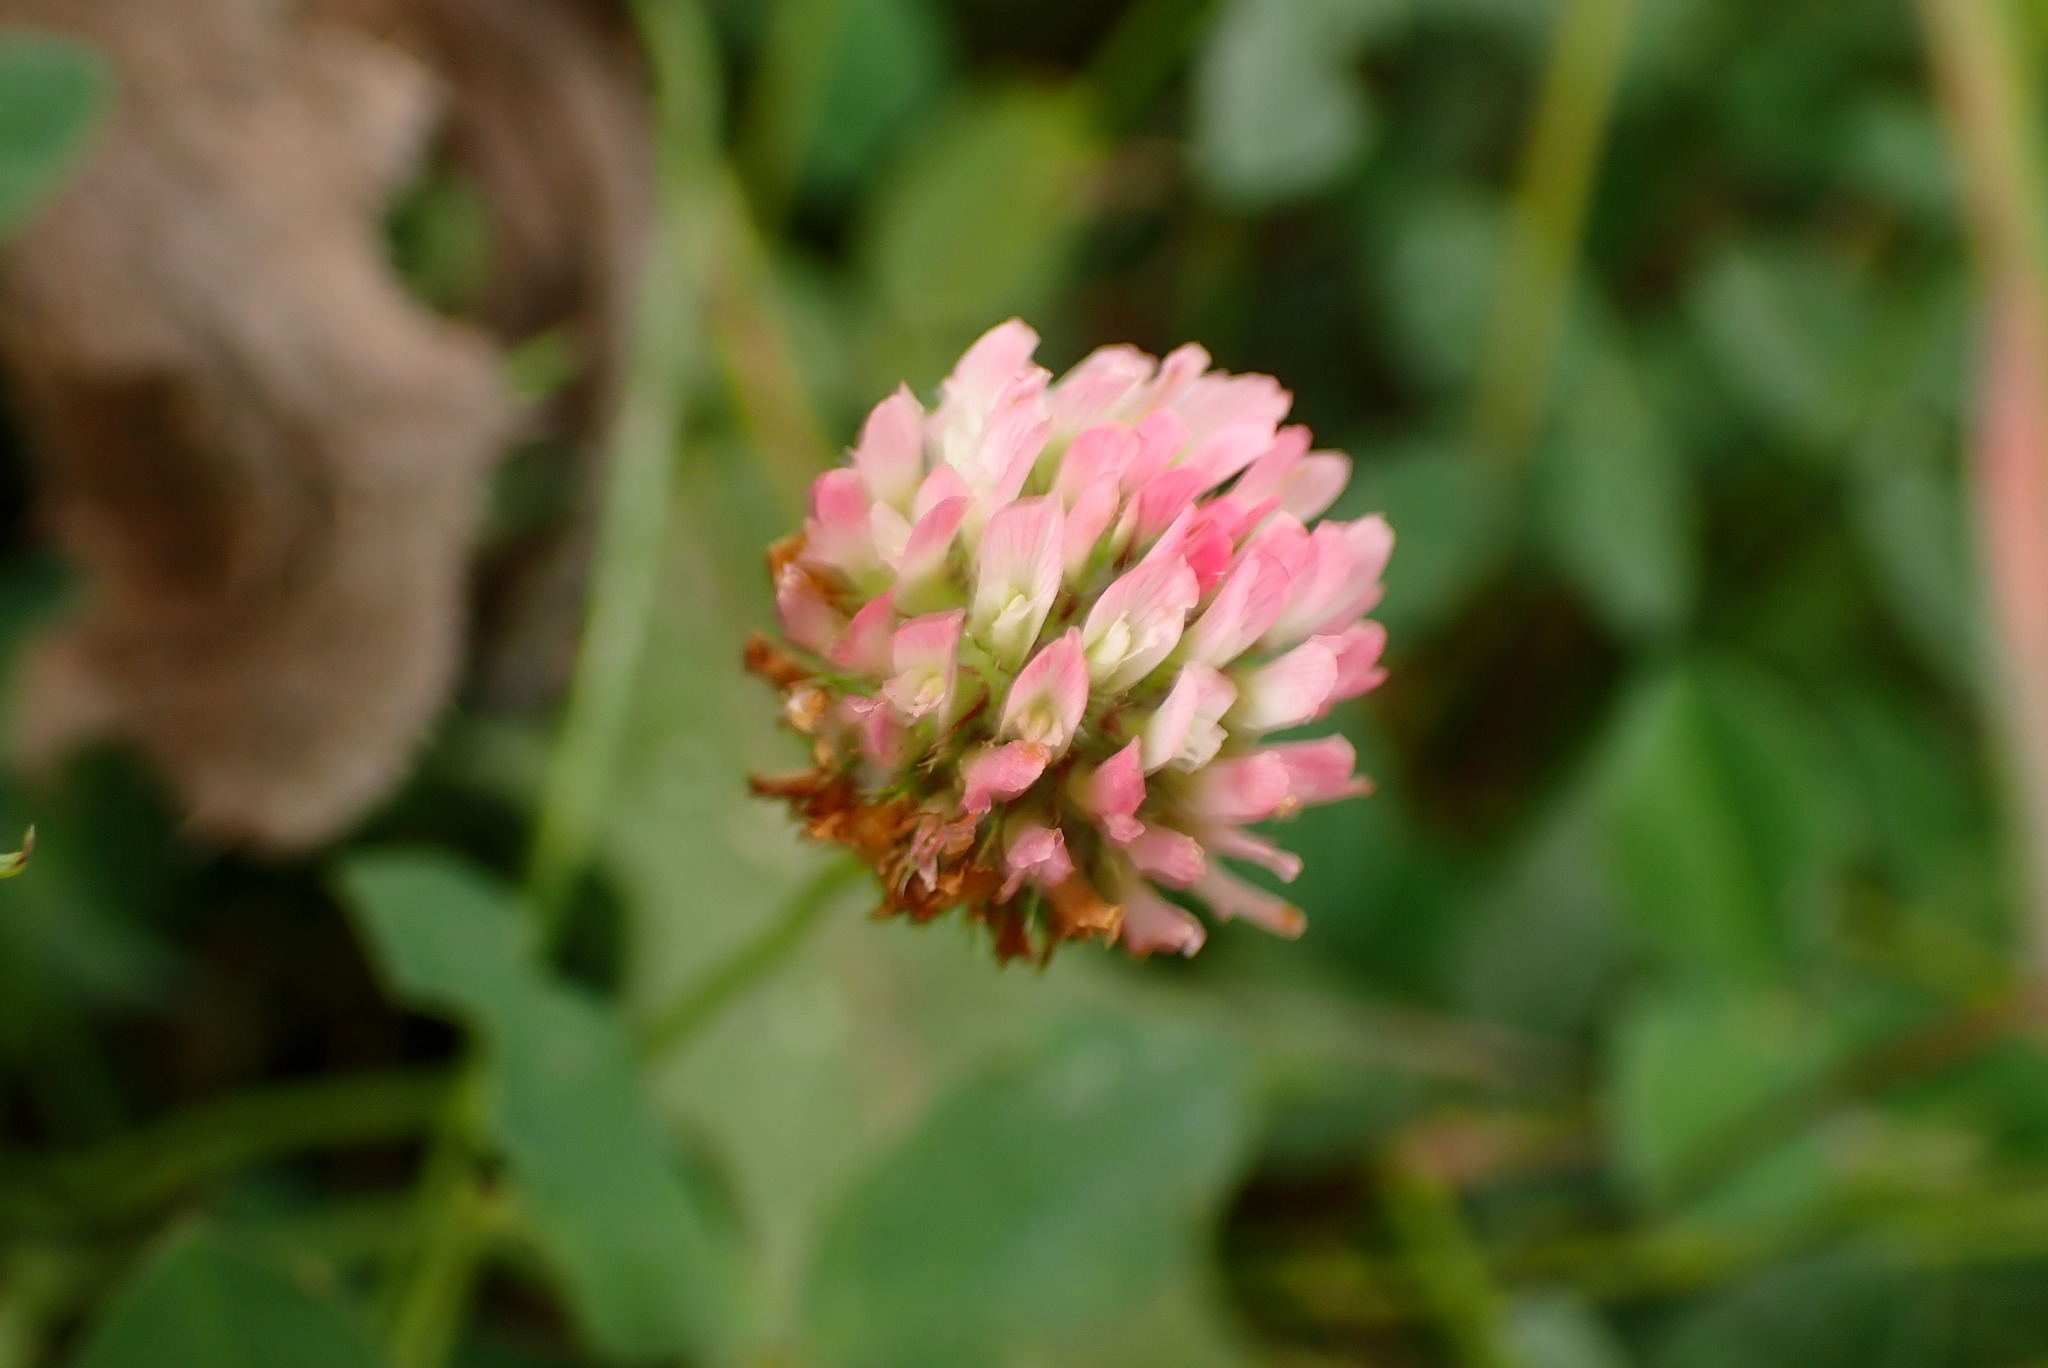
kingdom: Plantae
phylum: Tracheophyta
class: Magnoliopsida
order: Fabales
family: Fabaceae
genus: Trifolium
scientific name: Trifolium fragiferum
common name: Strawberry clover
